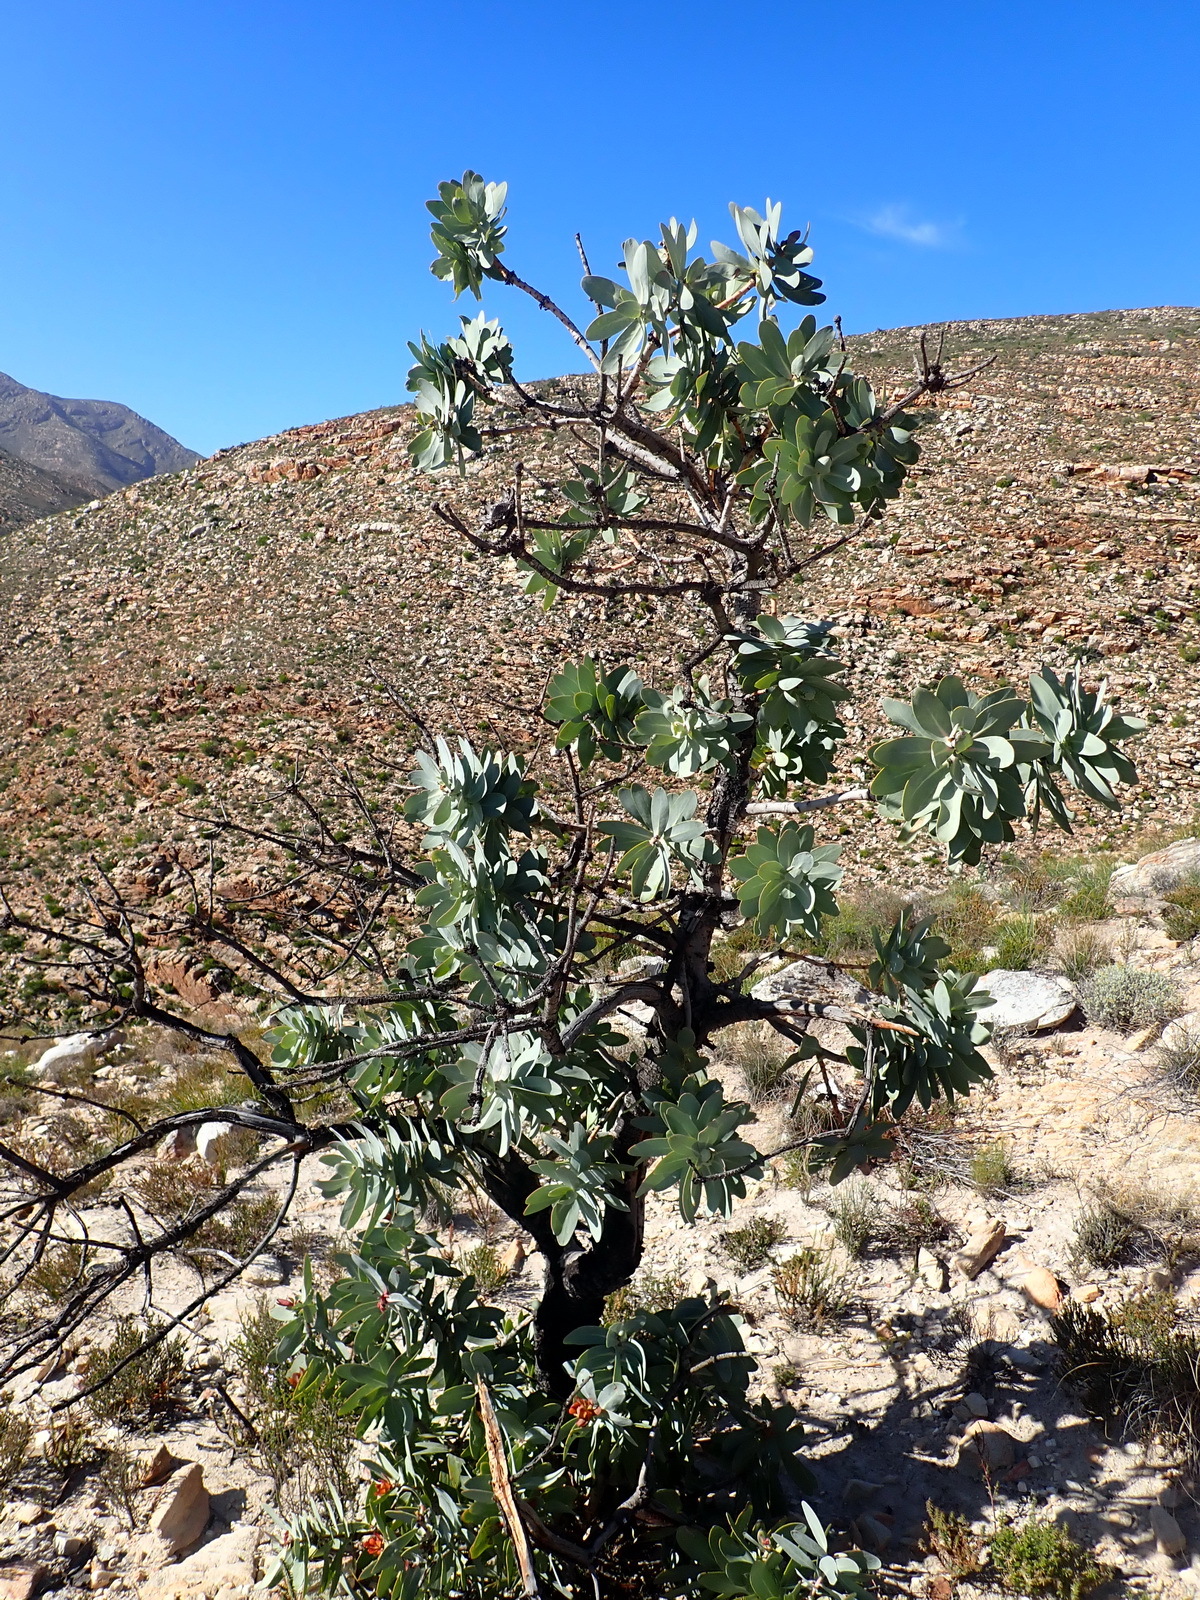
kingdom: Plantae
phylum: Tracheophyta
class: Magnoliopsida
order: Proteales
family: Proteaceae
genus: Protea
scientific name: Protea nitida
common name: Tree protea
